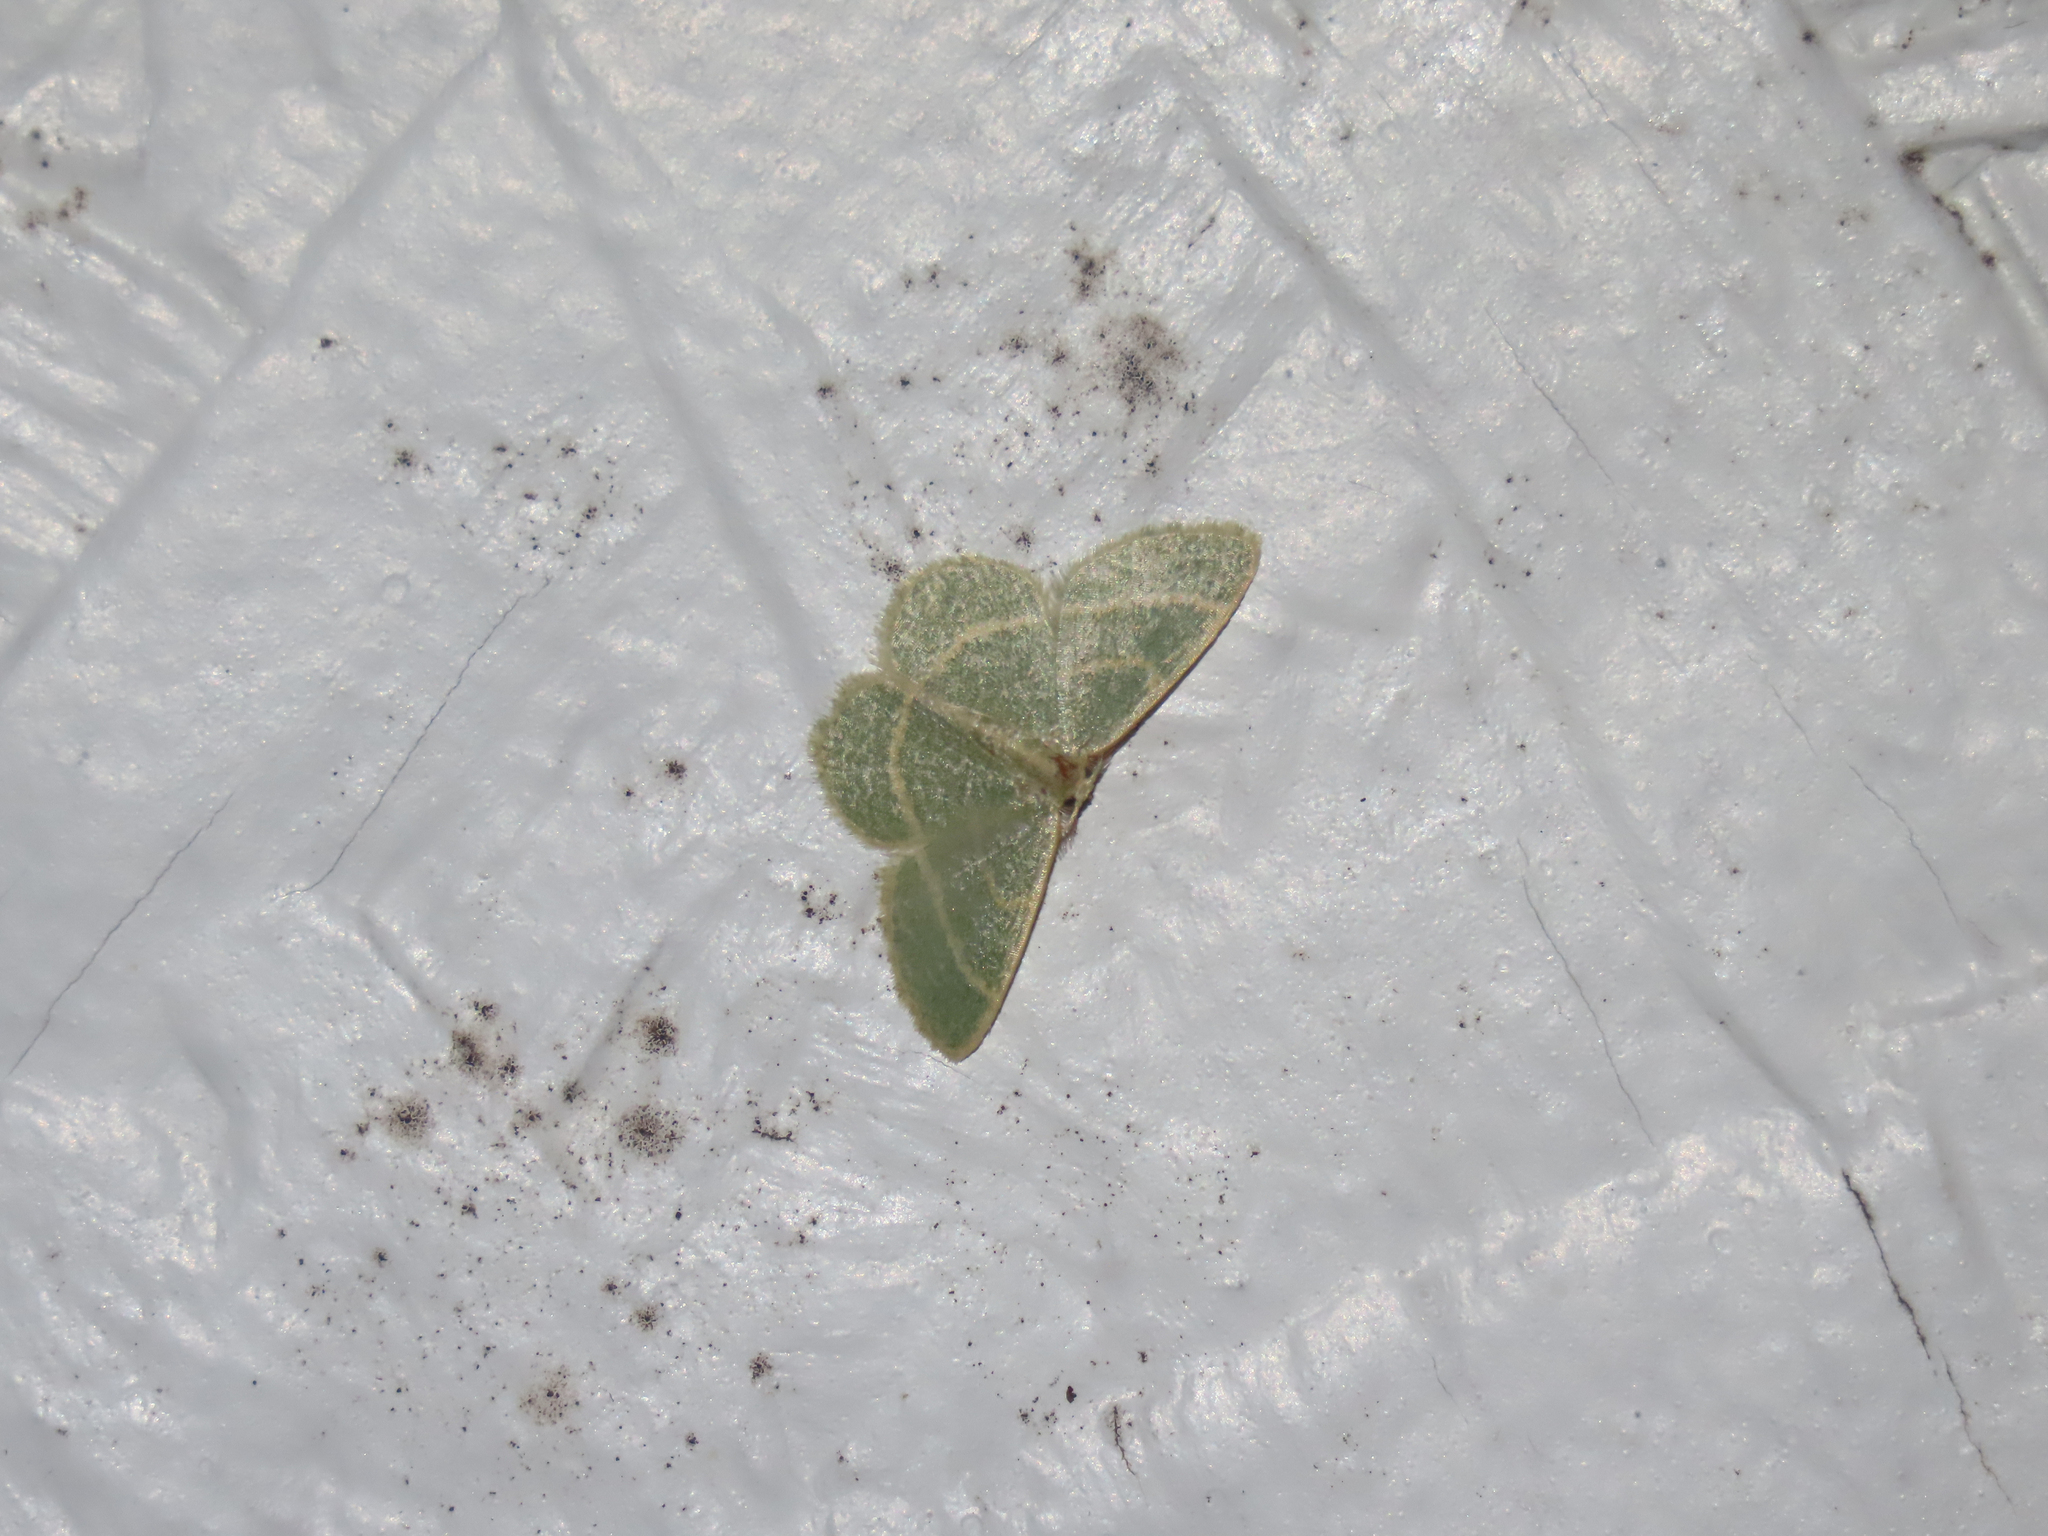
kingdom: Animalia
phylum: Arthropoda
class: Insecta
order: Lepidoptera
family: Geometridae
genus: Chlorochlamys
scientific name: Chlorochlamys chloroleucaria
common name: Blackberry looper
